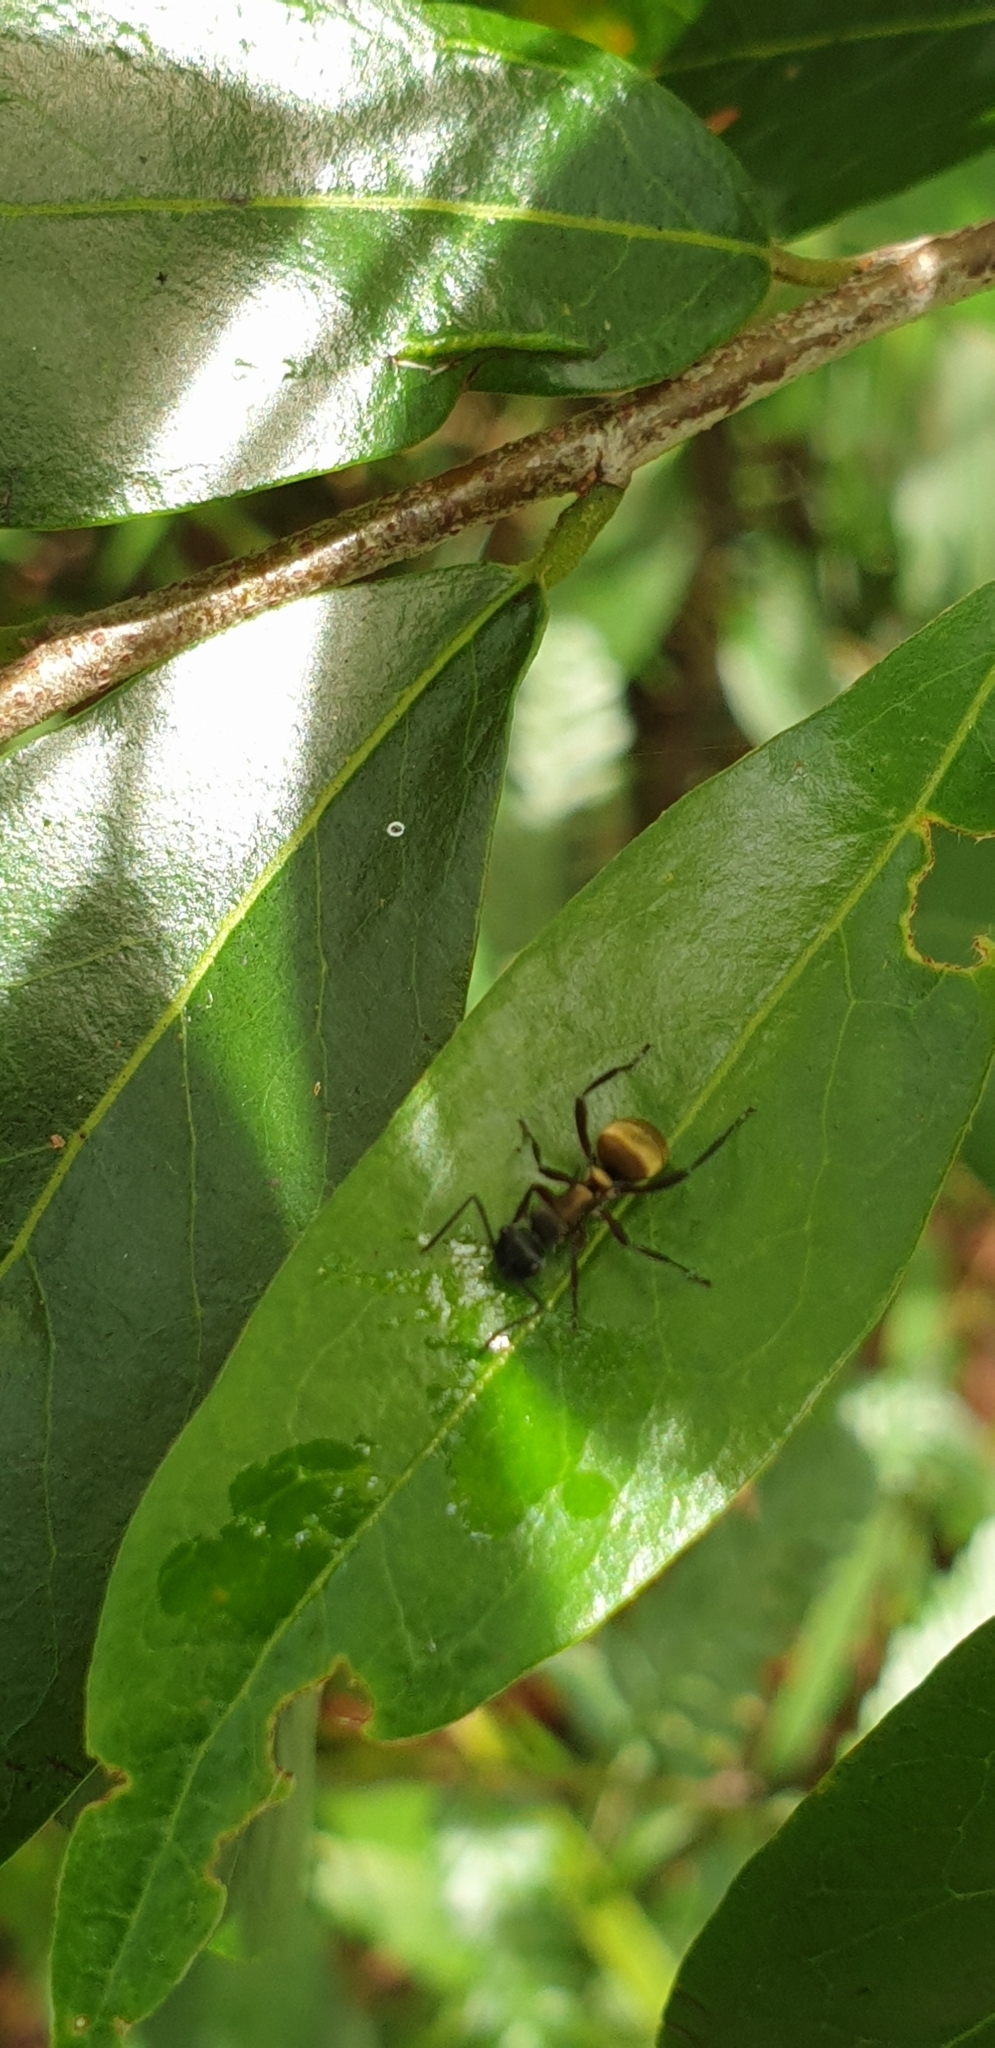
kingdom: Animalia
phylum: Arthropoda
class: Insecta
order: Hymenoptera
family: Formicidae
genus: Polyrhachis
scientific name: Polyrhachis rufifemur
